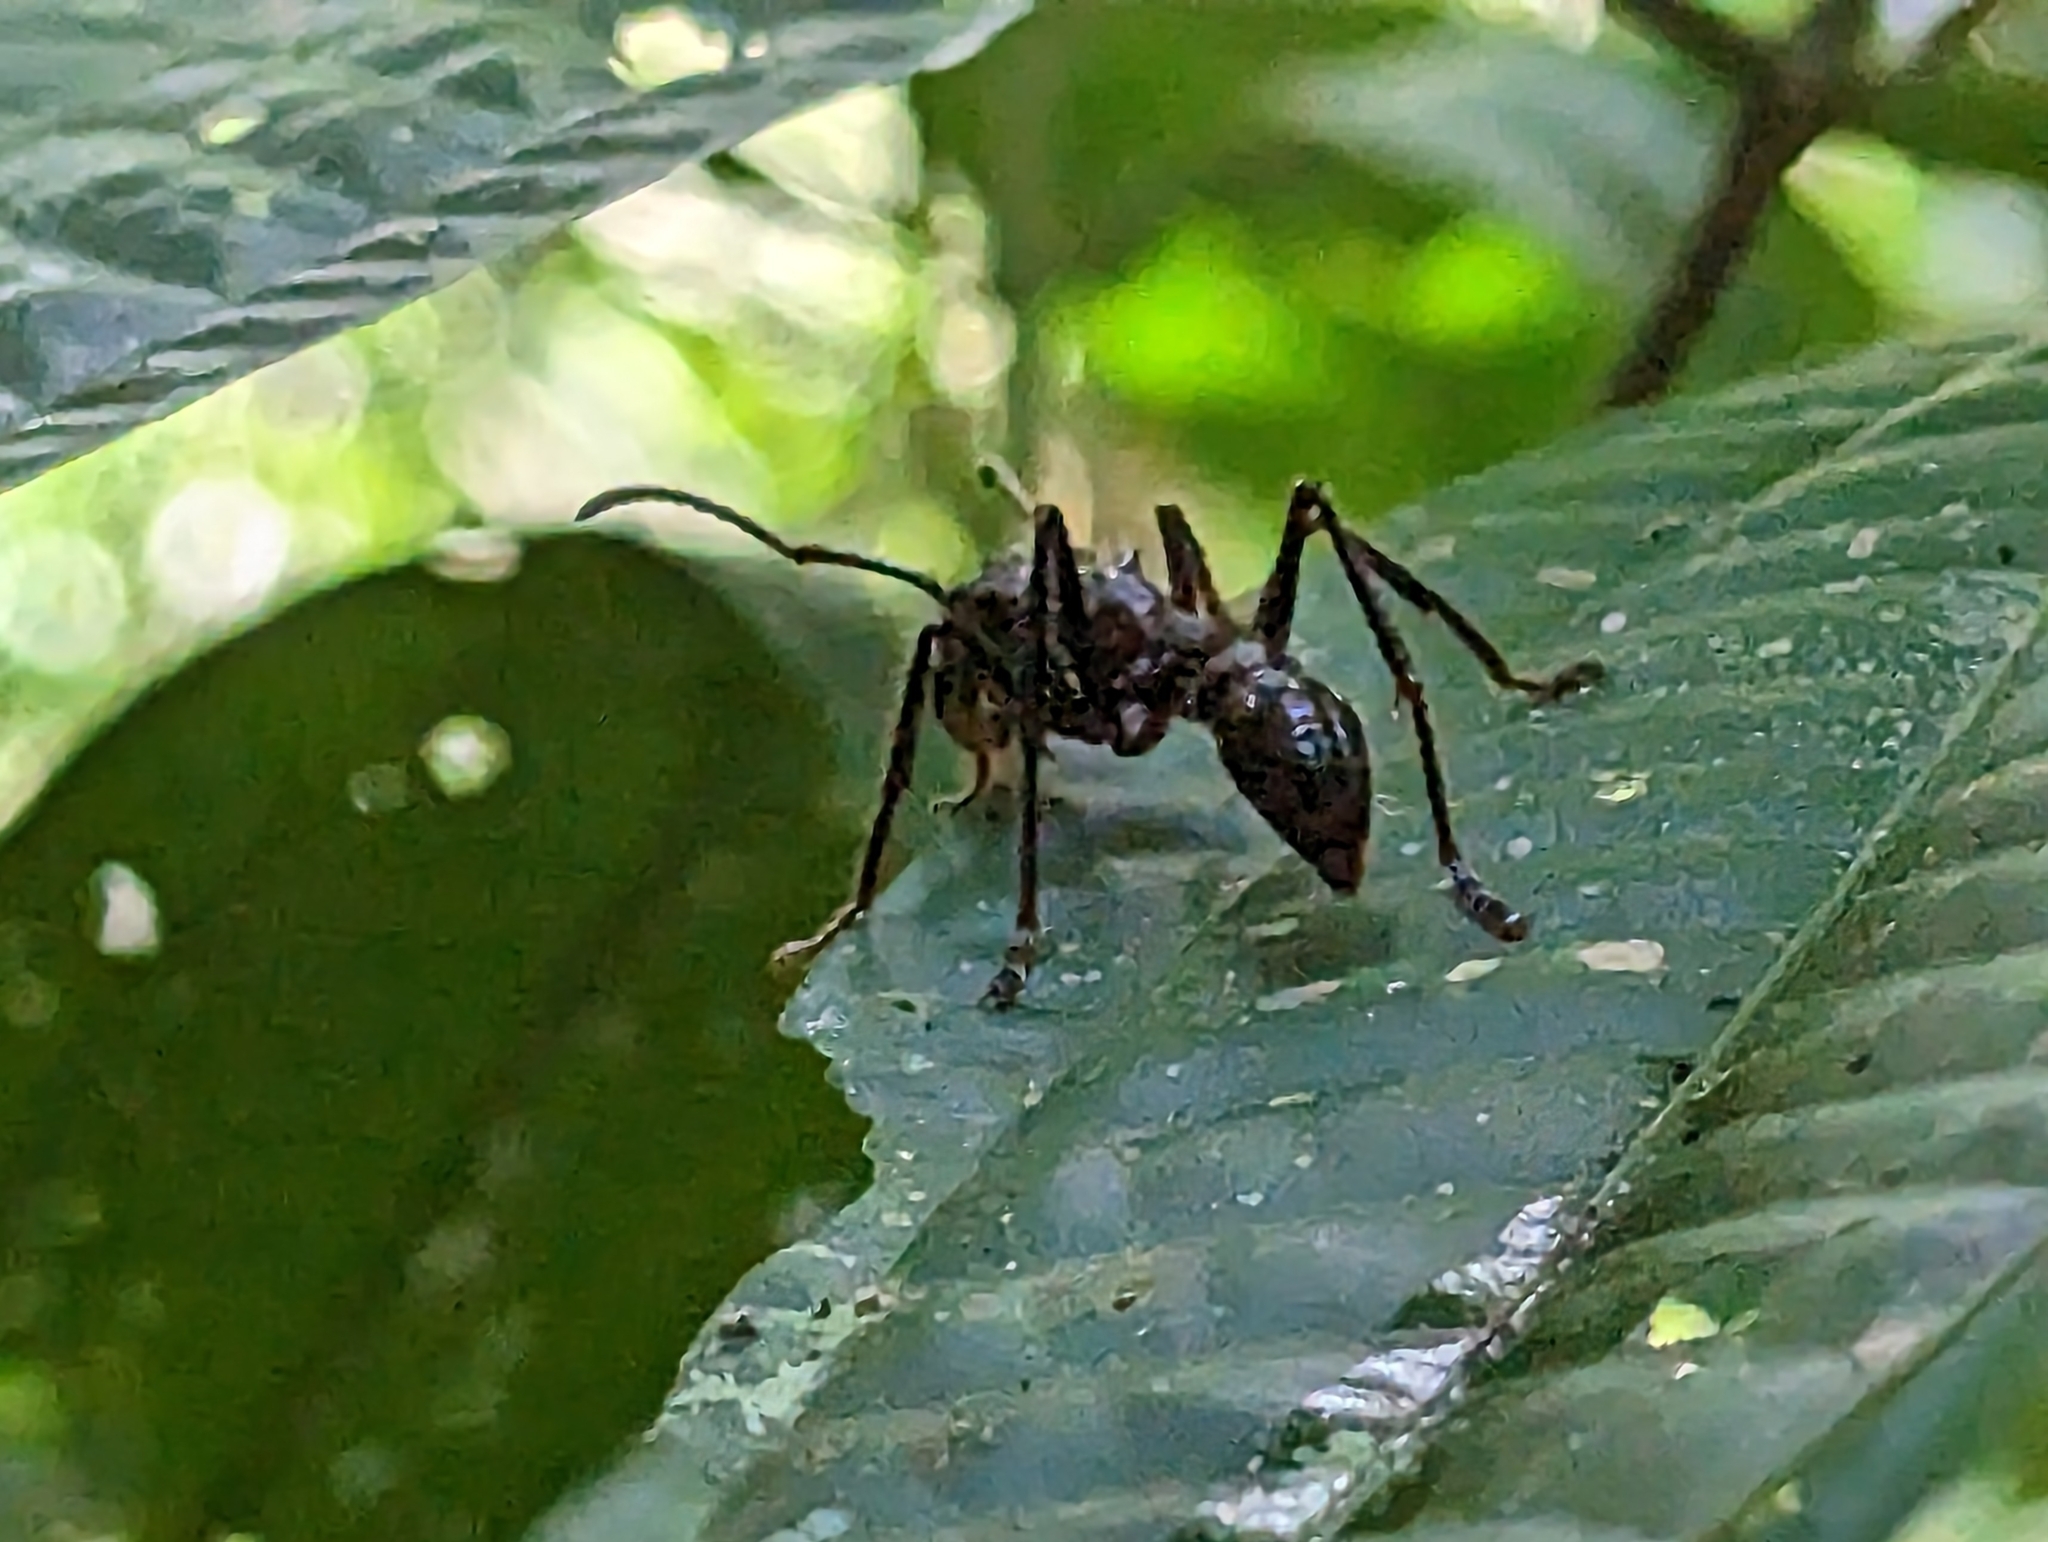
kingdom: Animalia
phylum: Arthropoda
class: Insecta
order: Hymenoptera
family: Formicidae
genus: Paraponera
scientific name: Paraponera clavata
